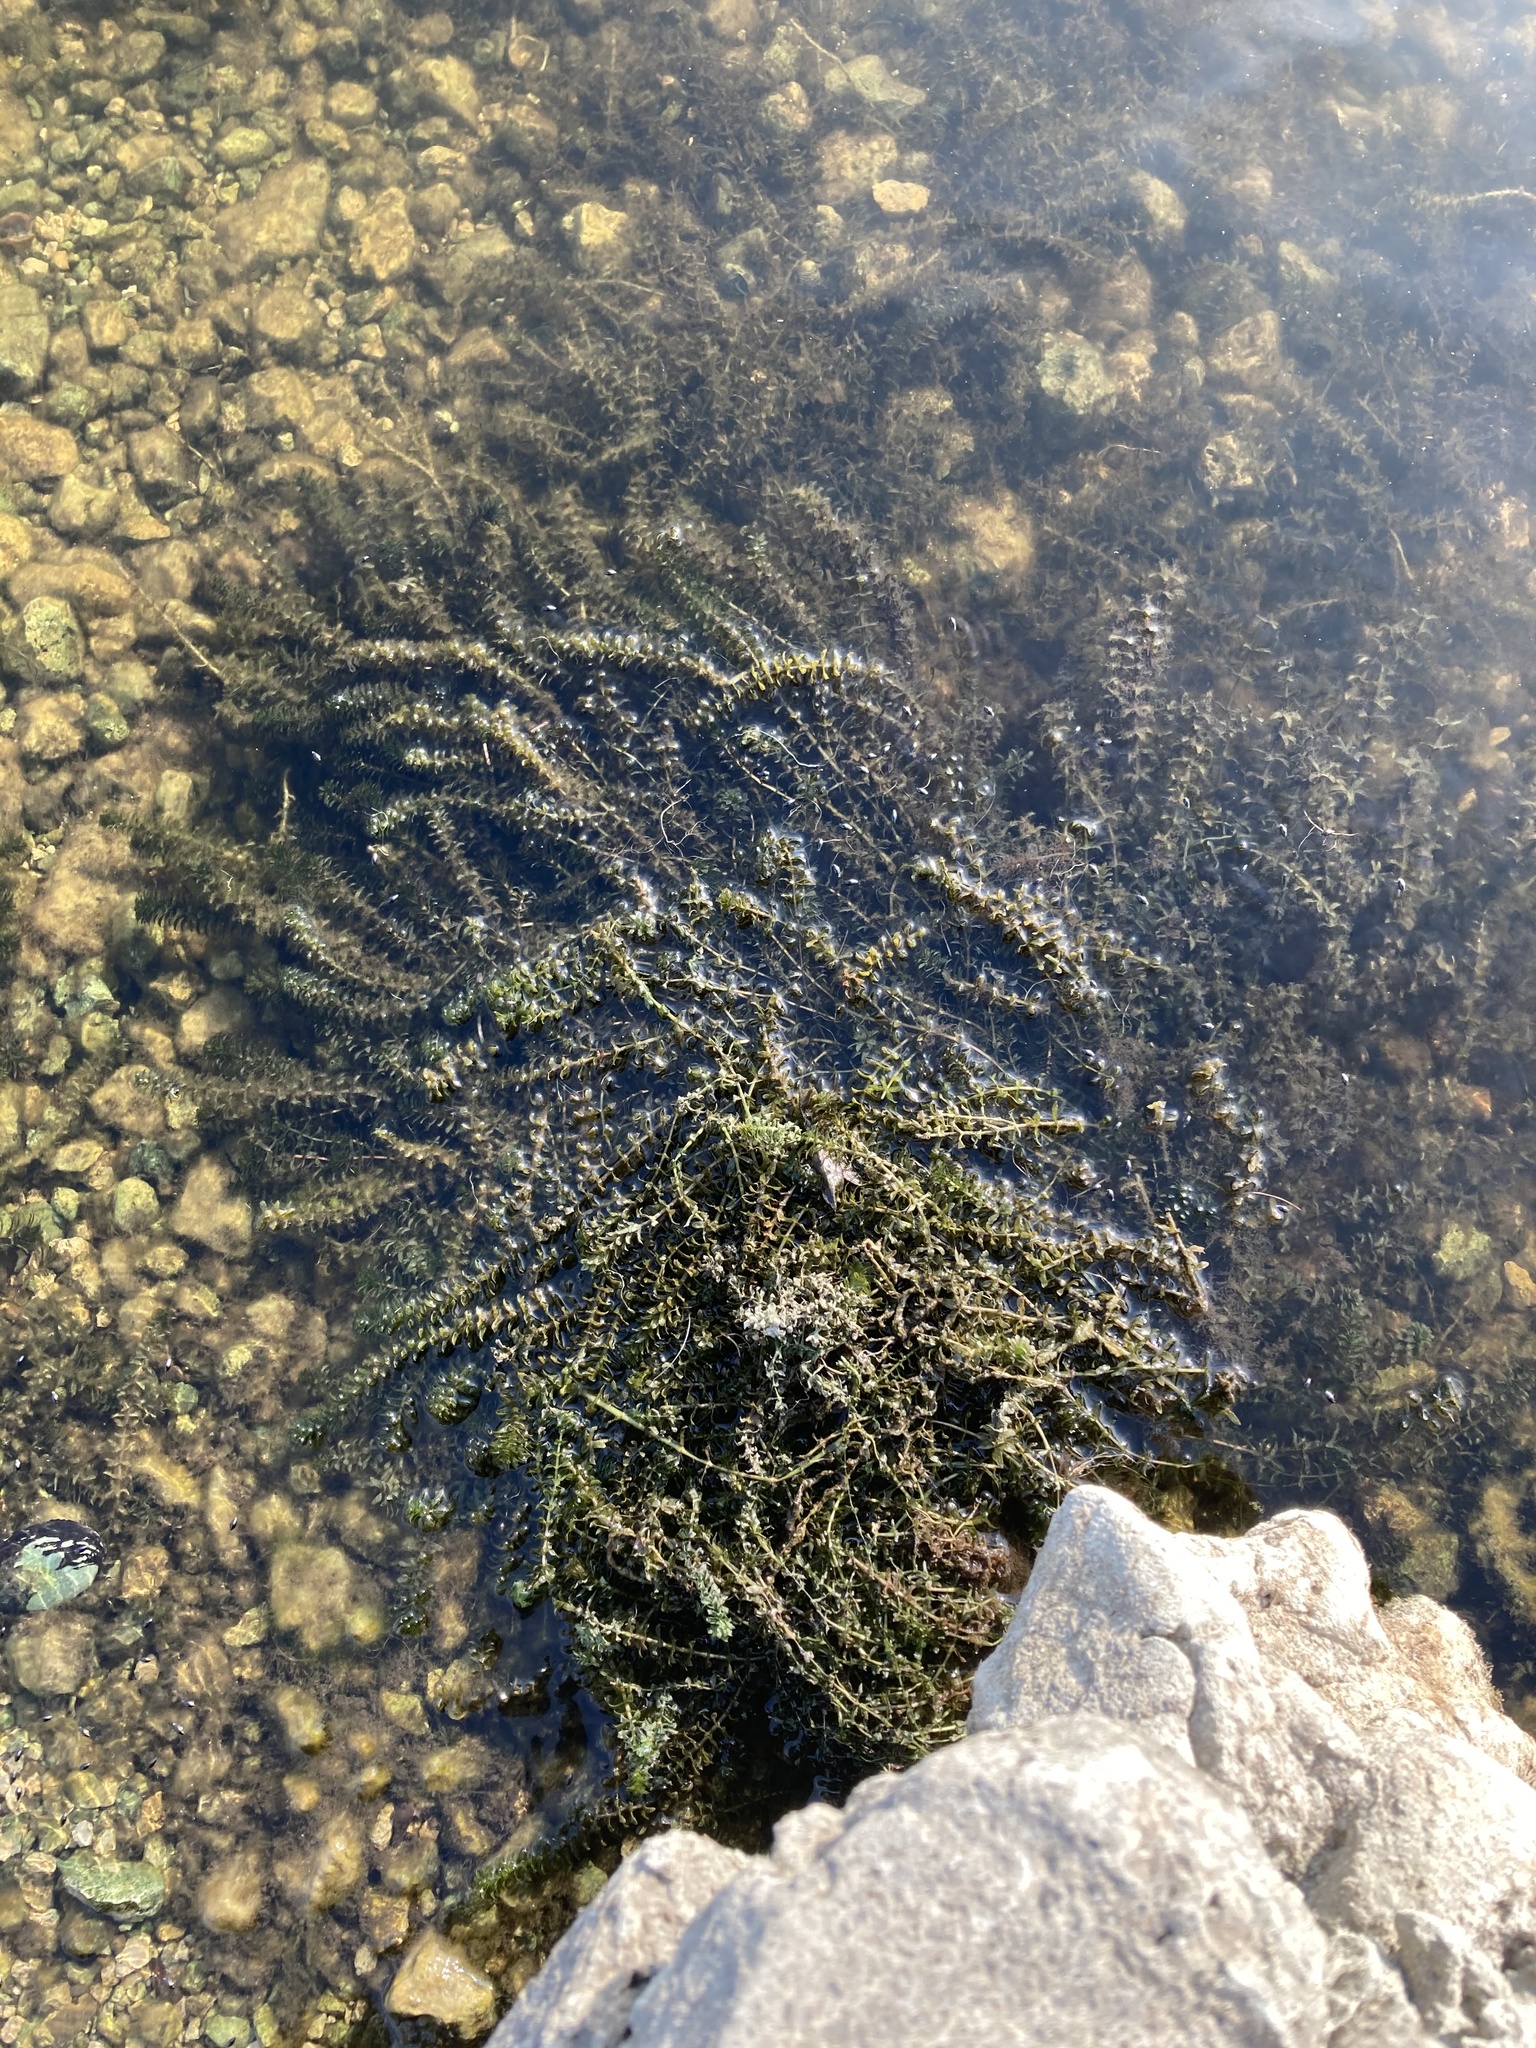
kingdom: Plantae
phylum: Tracheophyta
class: Liliopsida
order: Alismatales
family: Hydrocharitaceae
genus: Hydrilla
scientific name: Hydrilla verticillata
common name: Florida-elodea
